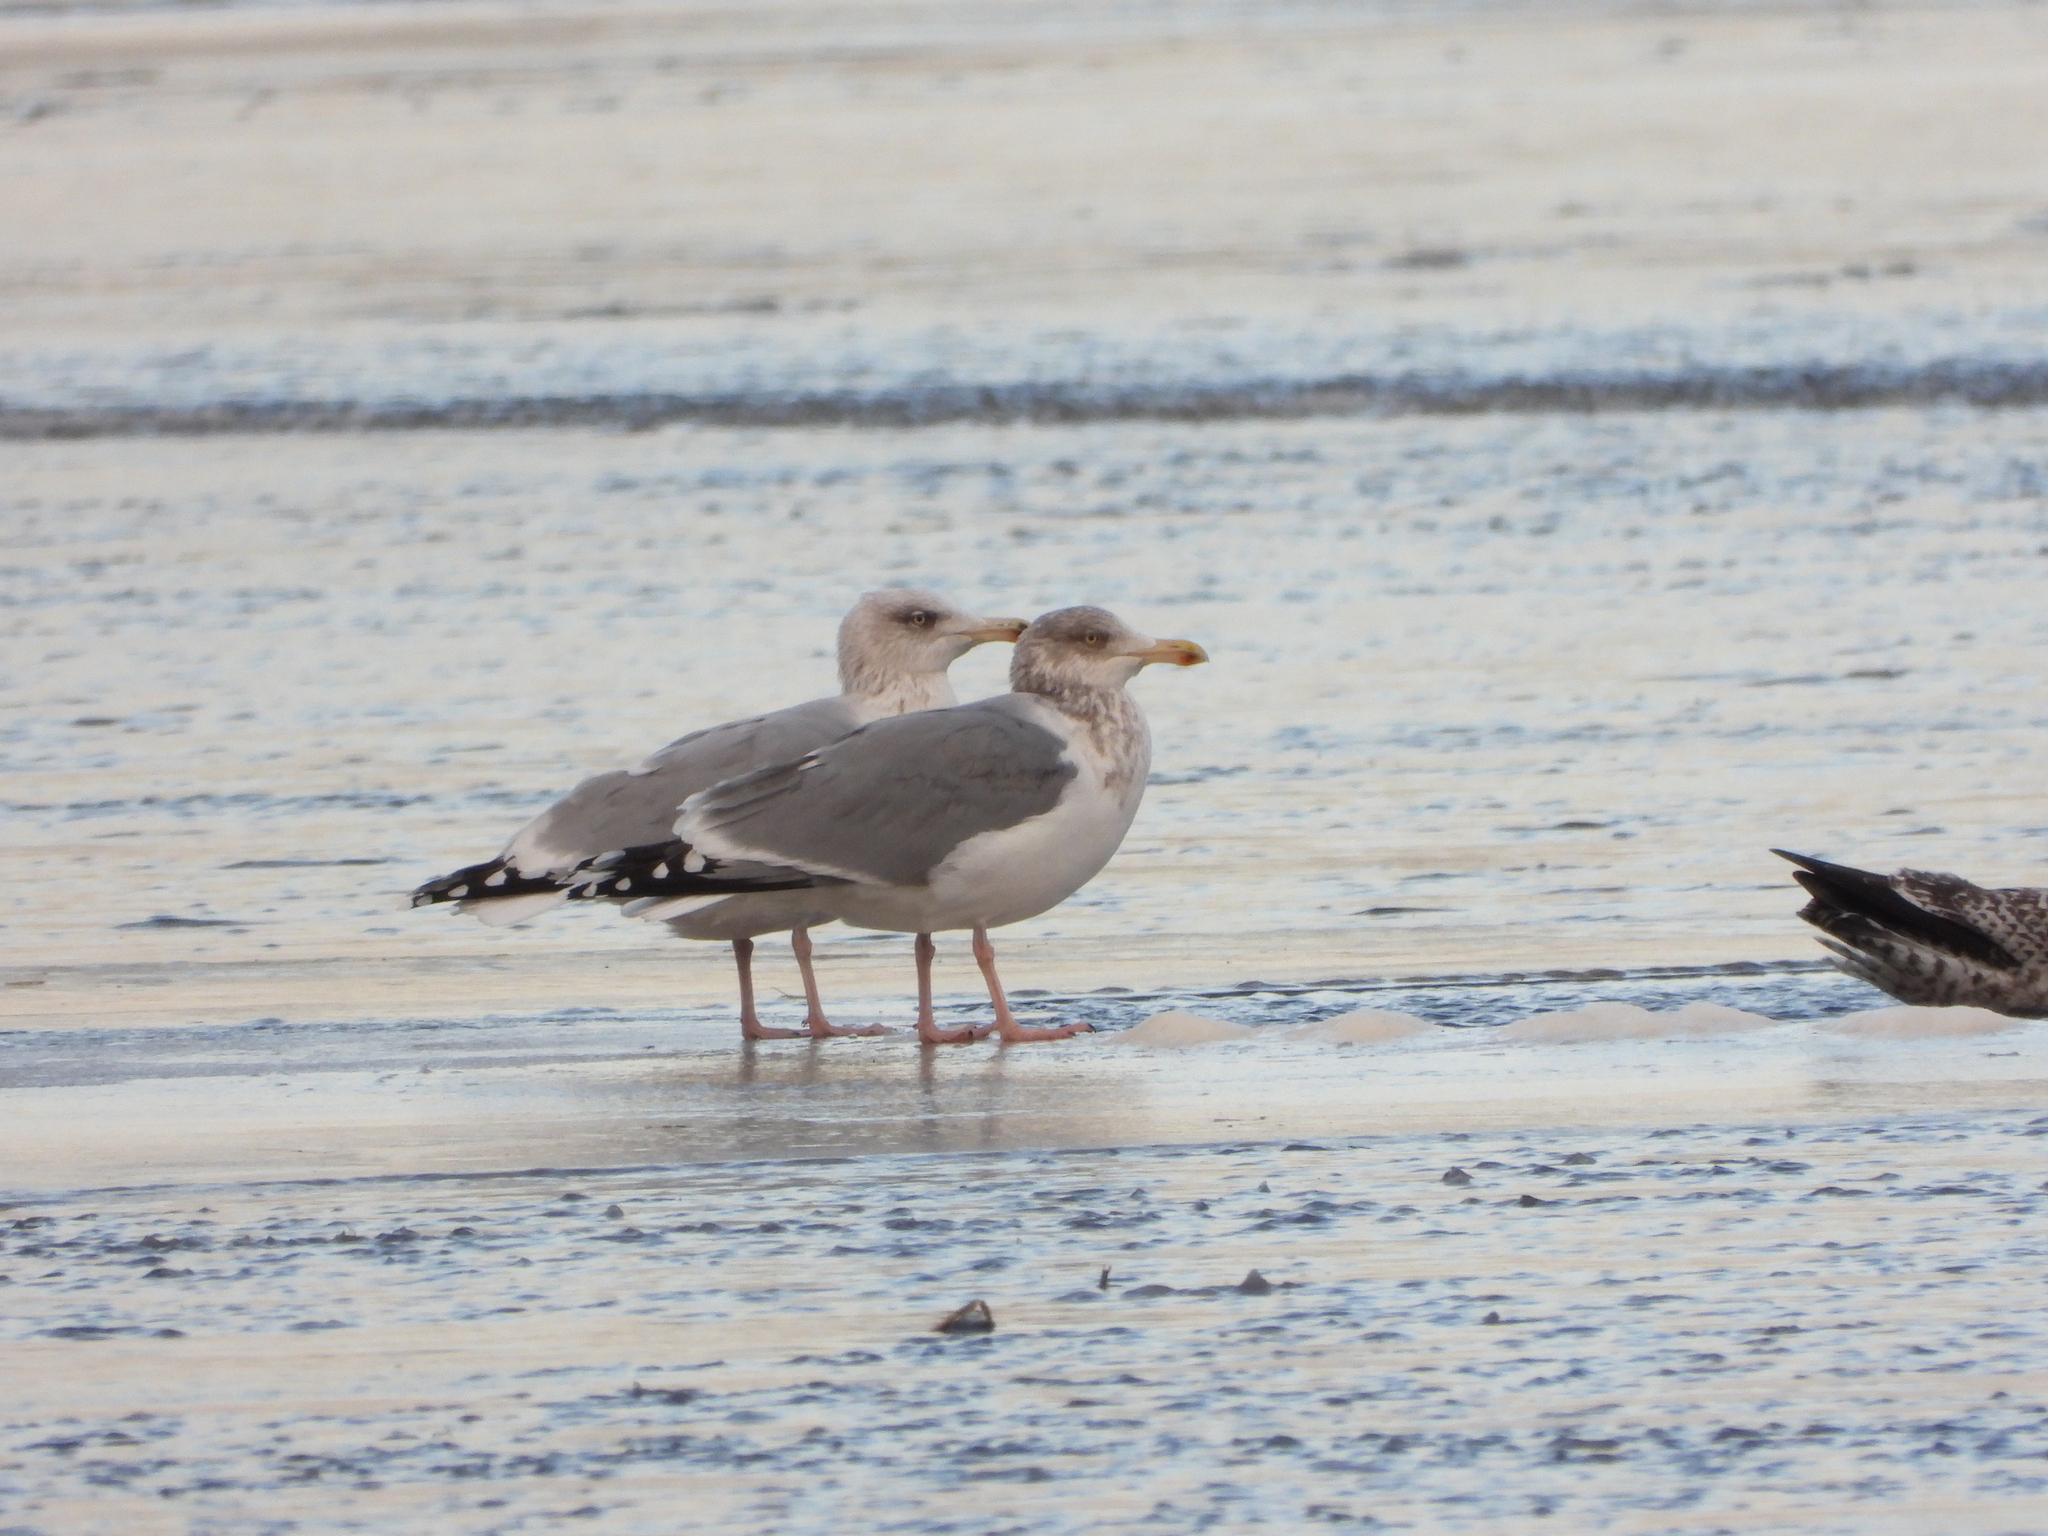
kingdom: Animalia
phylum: Chordata
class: Aves
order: Charadriiformes
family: Laridae
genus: Larus
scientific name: Larus argentatus
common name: Herring gull
